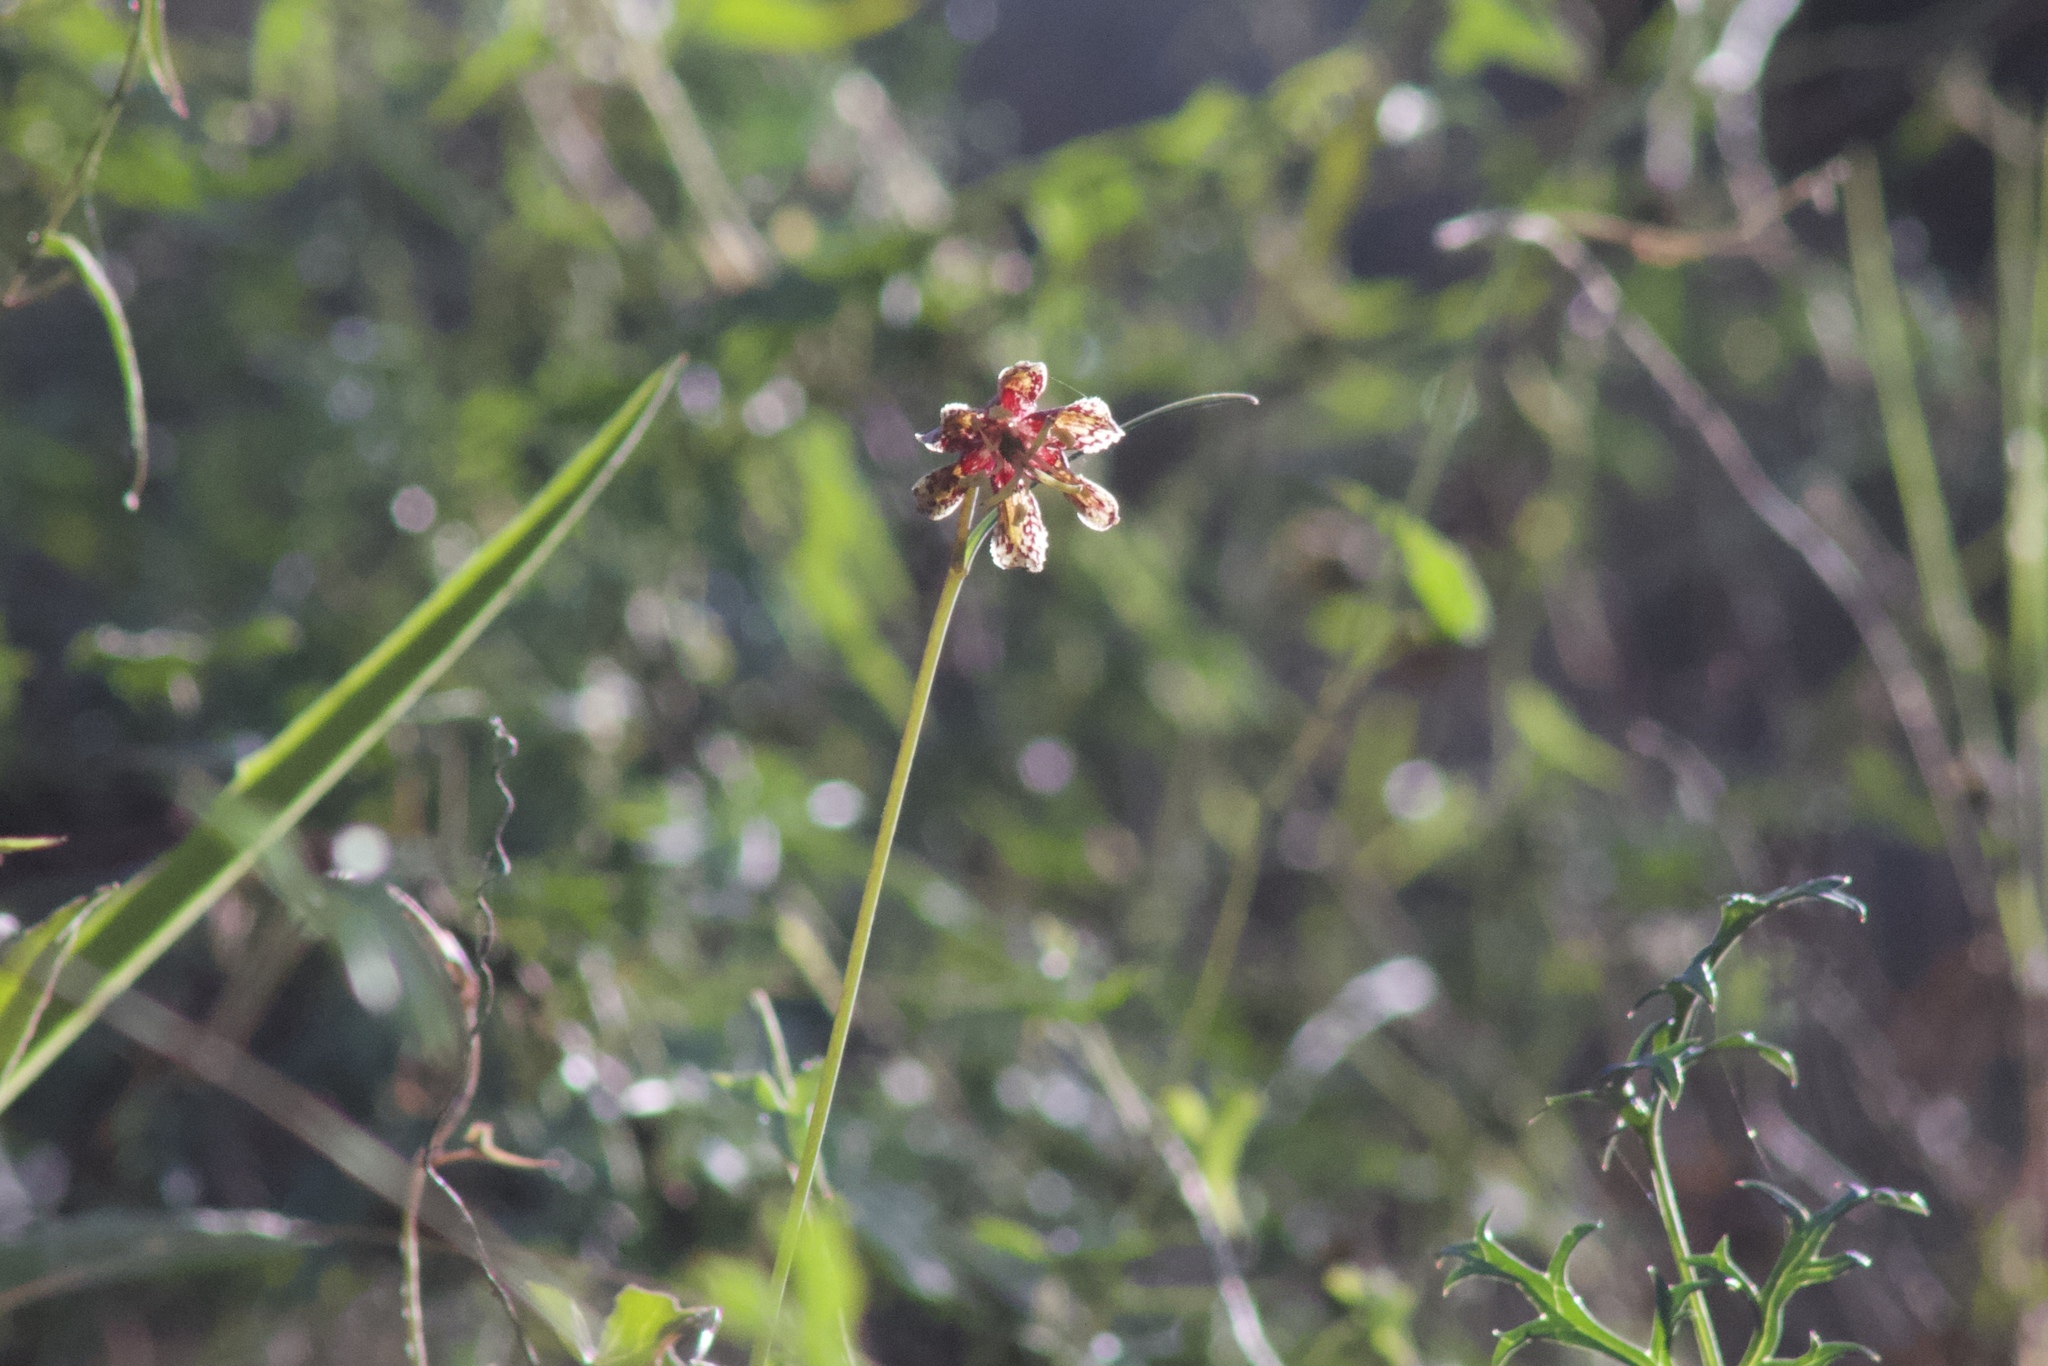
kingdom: Plantae
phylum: Tracheophyta
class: Liliopsida
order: Liliales
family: Liliaceae
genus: Fritillaria
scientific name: Fritillaria ojaiensis
